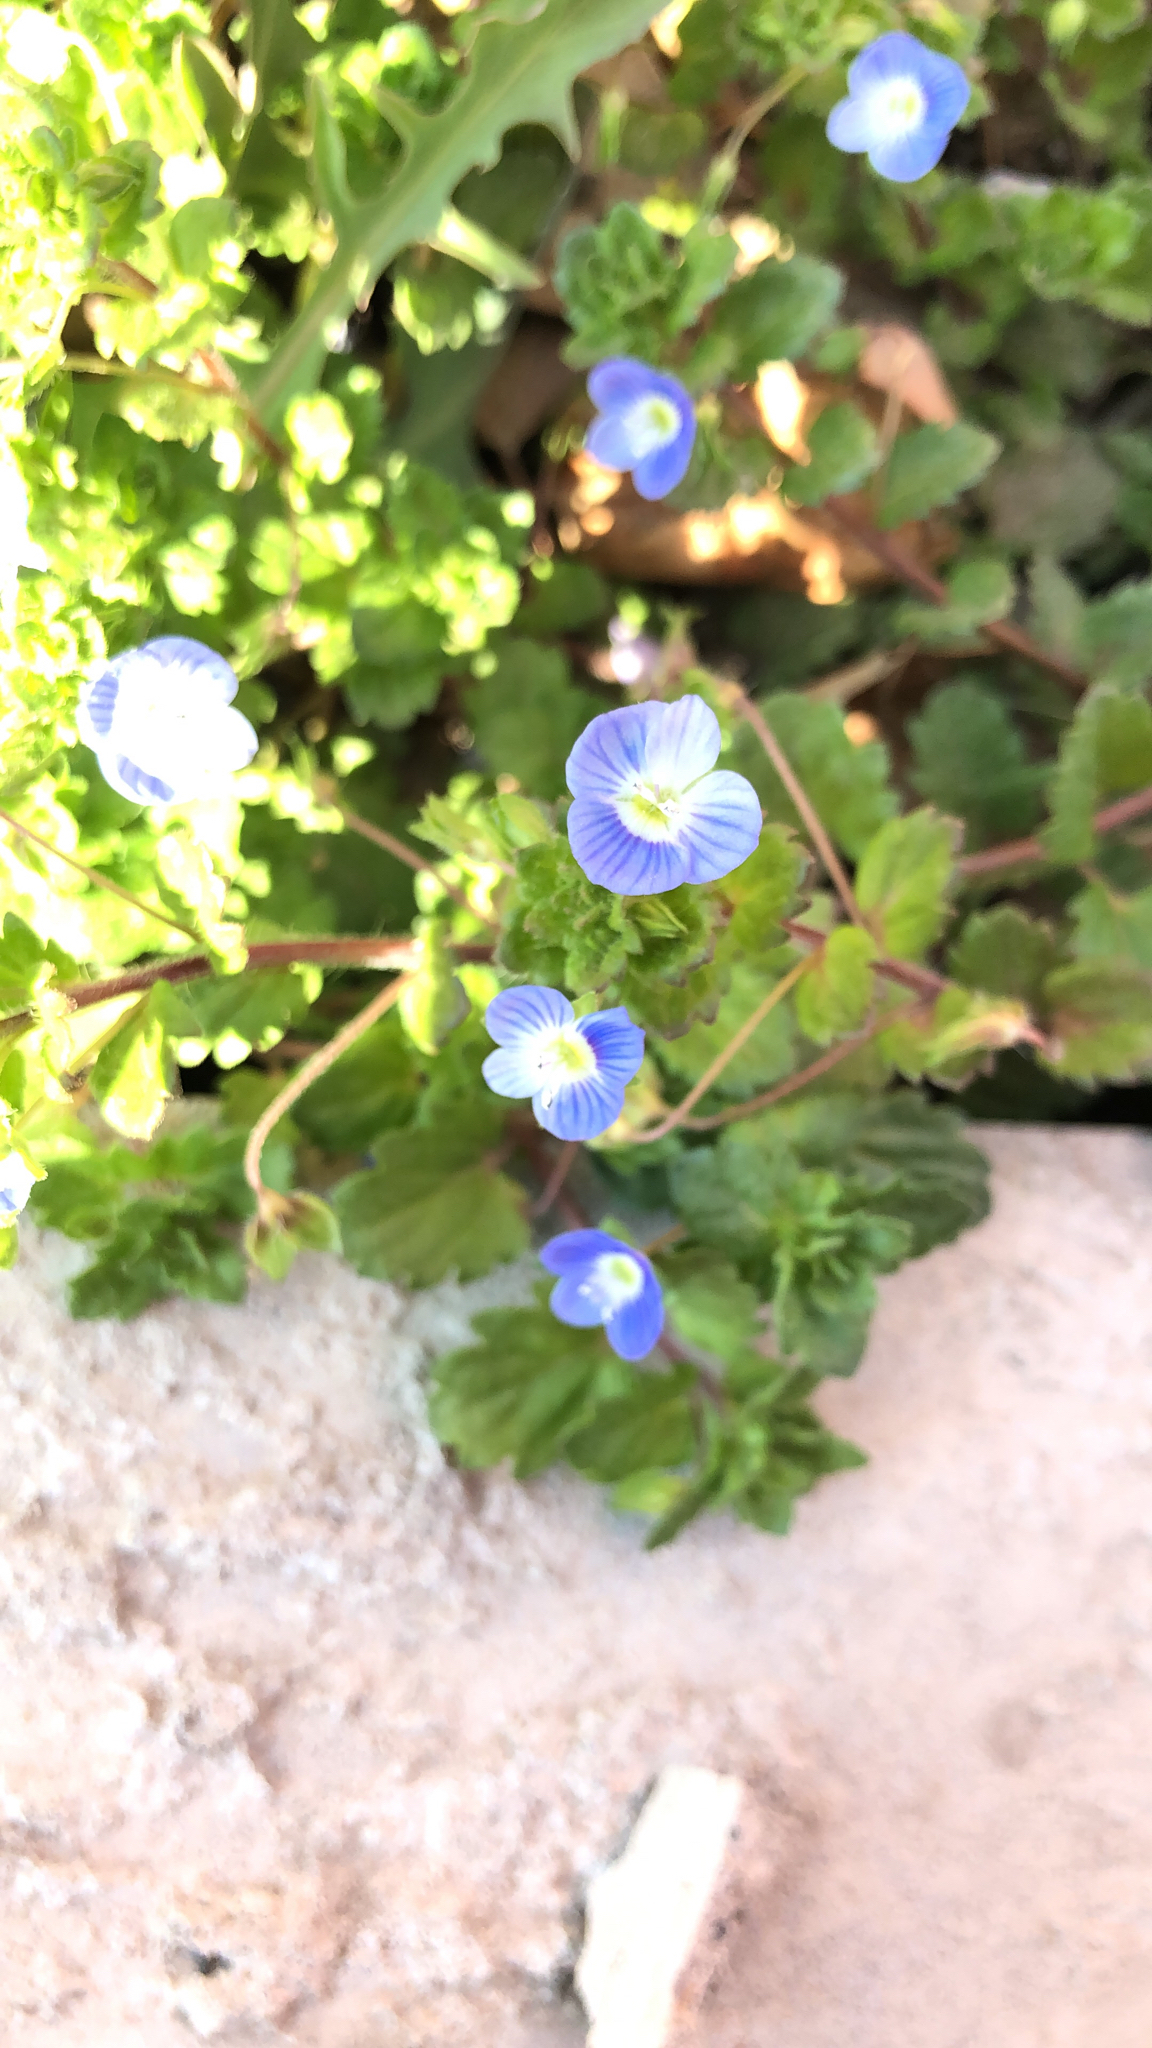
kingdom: Plantae
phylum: Tracheophyta
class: Magnoliopsida
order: Lamiales
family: Plantaginaceae
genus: Veronica
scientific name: Veronica persica
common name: Common field-speedwell
